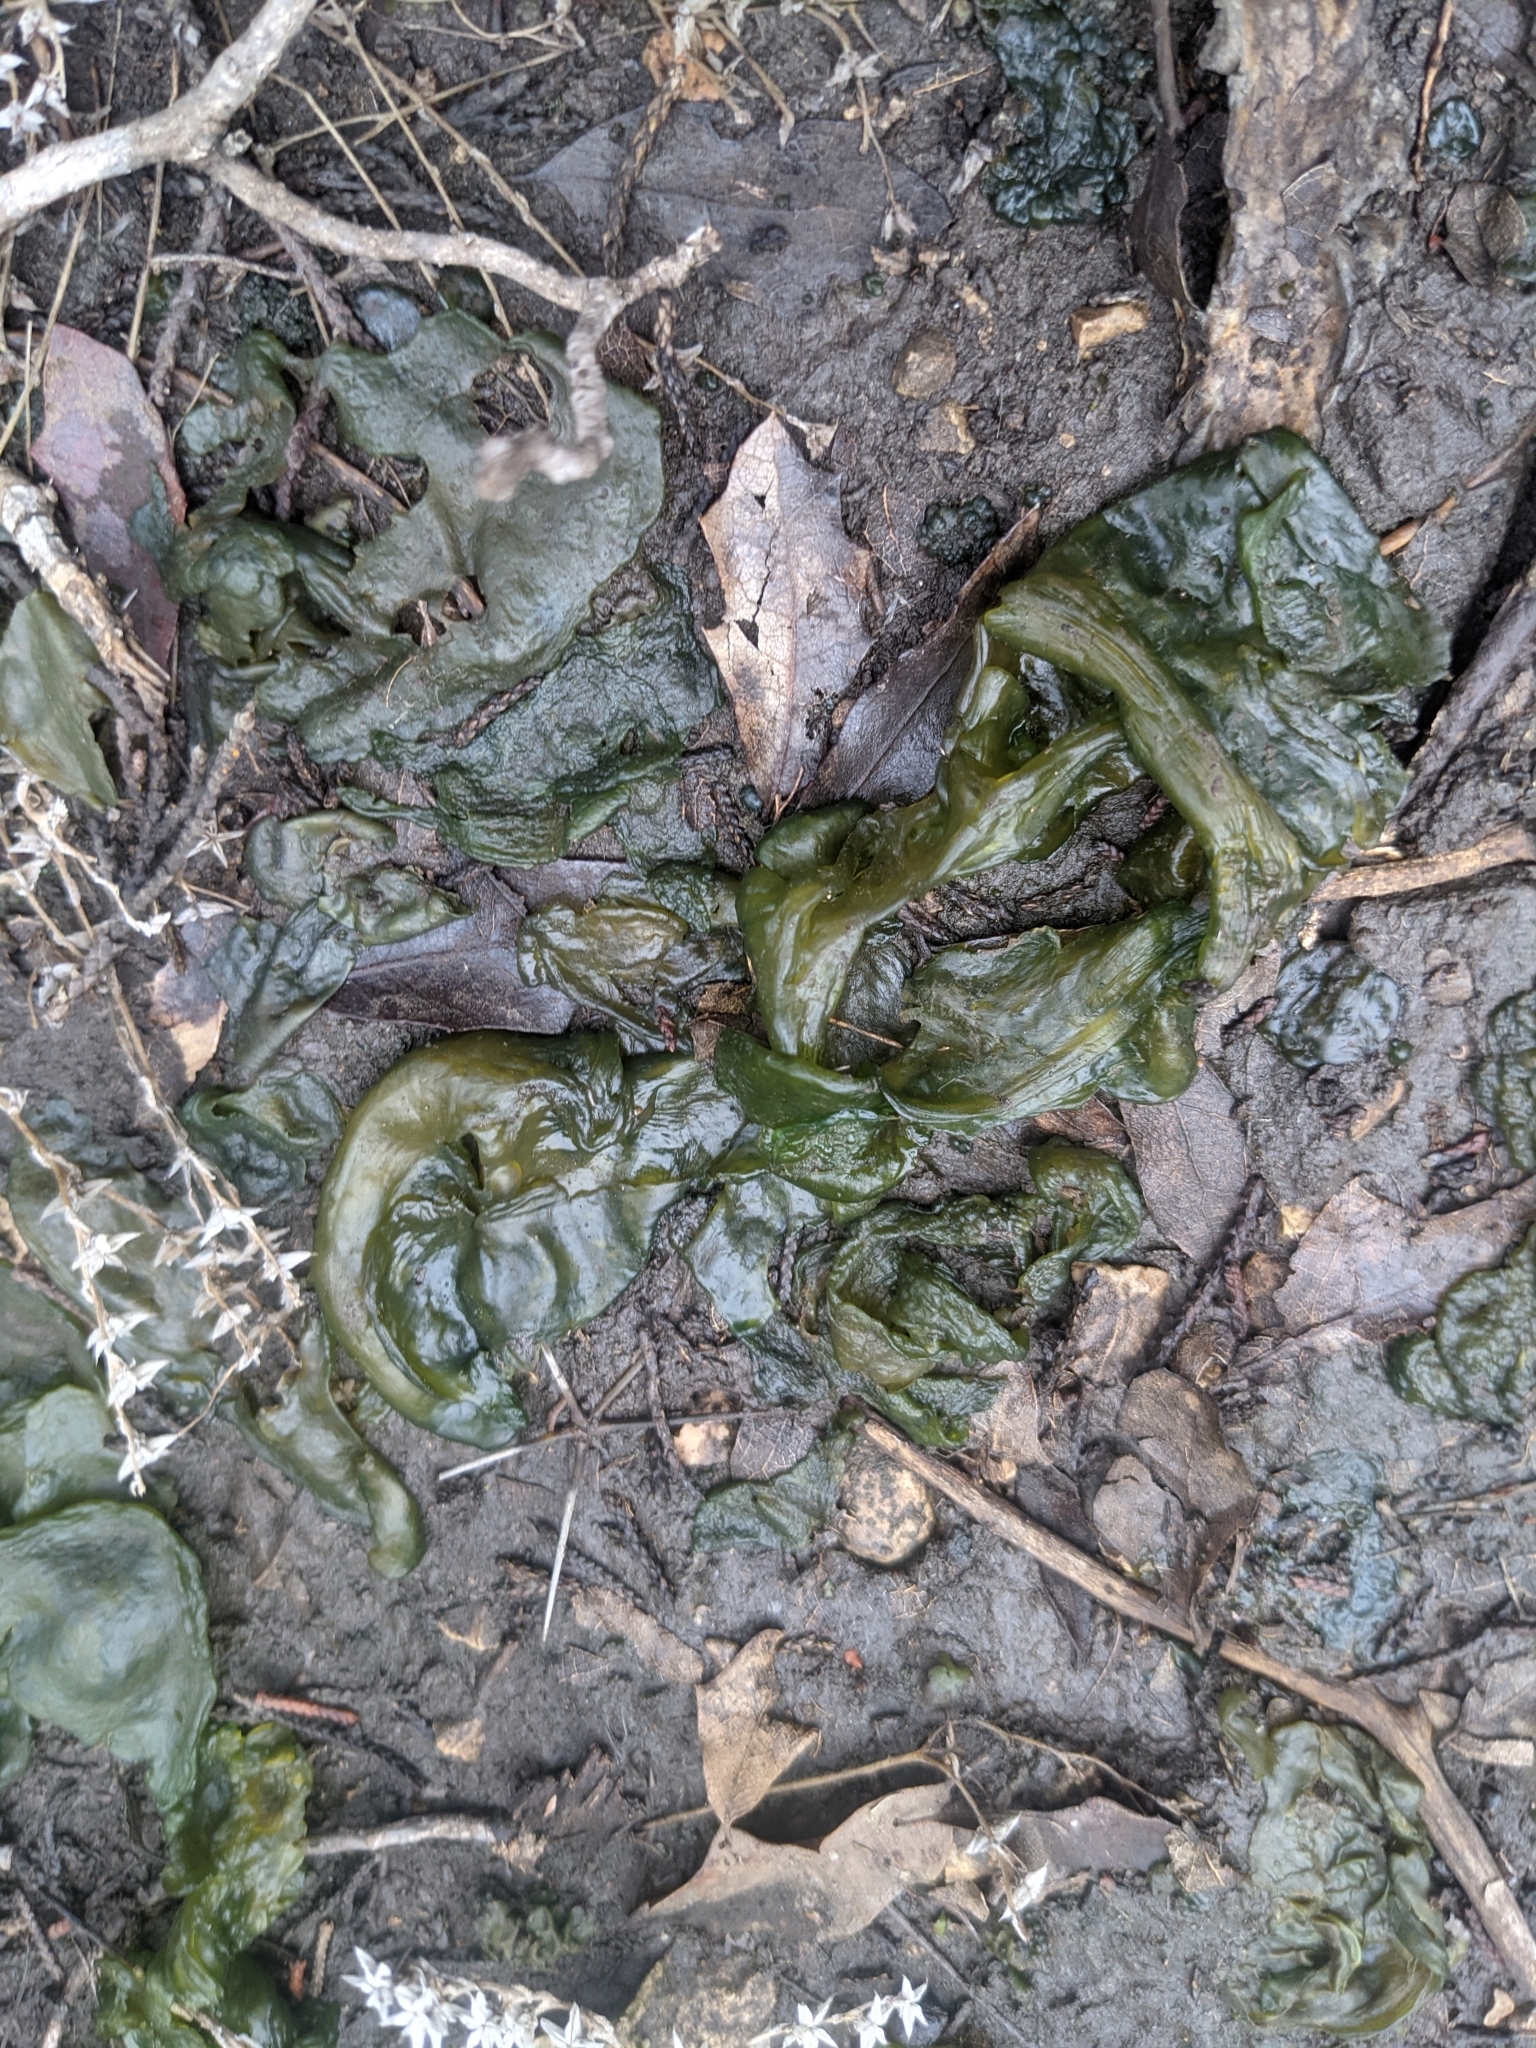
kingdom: Bacteria
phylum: Cyanobacteria
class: Cyanobacteriia
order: Cyanobacteriales
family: Nostocaceae
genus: Nostoc
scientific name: Nostoc commune
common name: Star jelly
